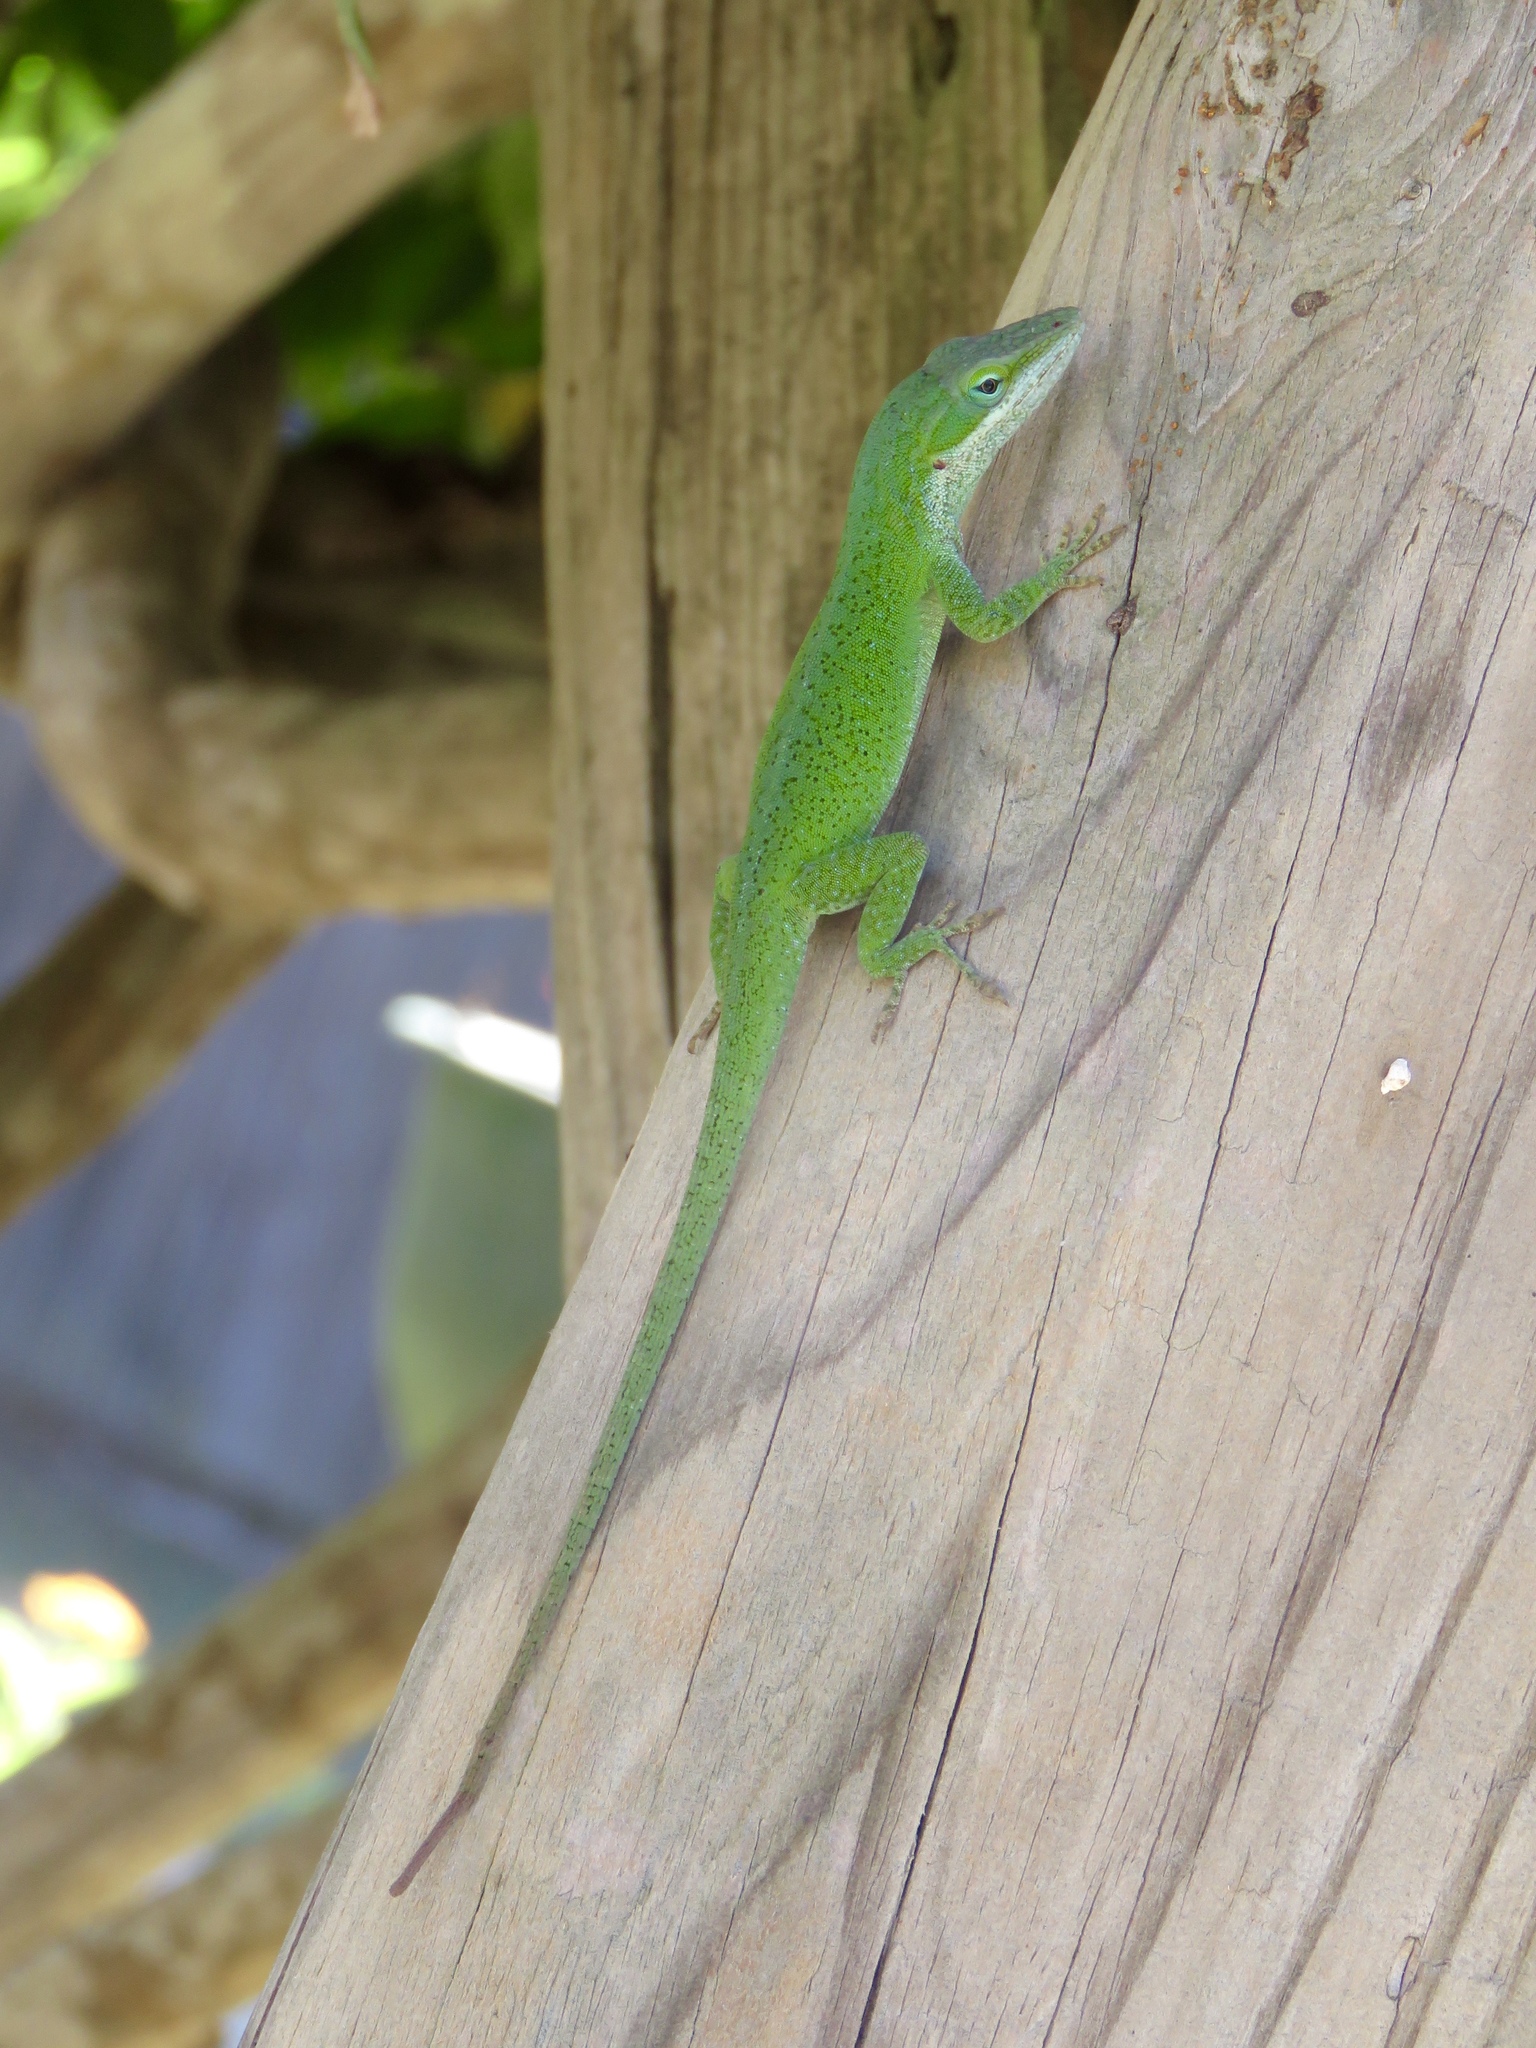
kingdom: Animalia
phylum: Chordata
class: Squamata
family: Dactyloidae
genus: Anolis
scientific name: Anolis carolinensis
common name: Green anole
